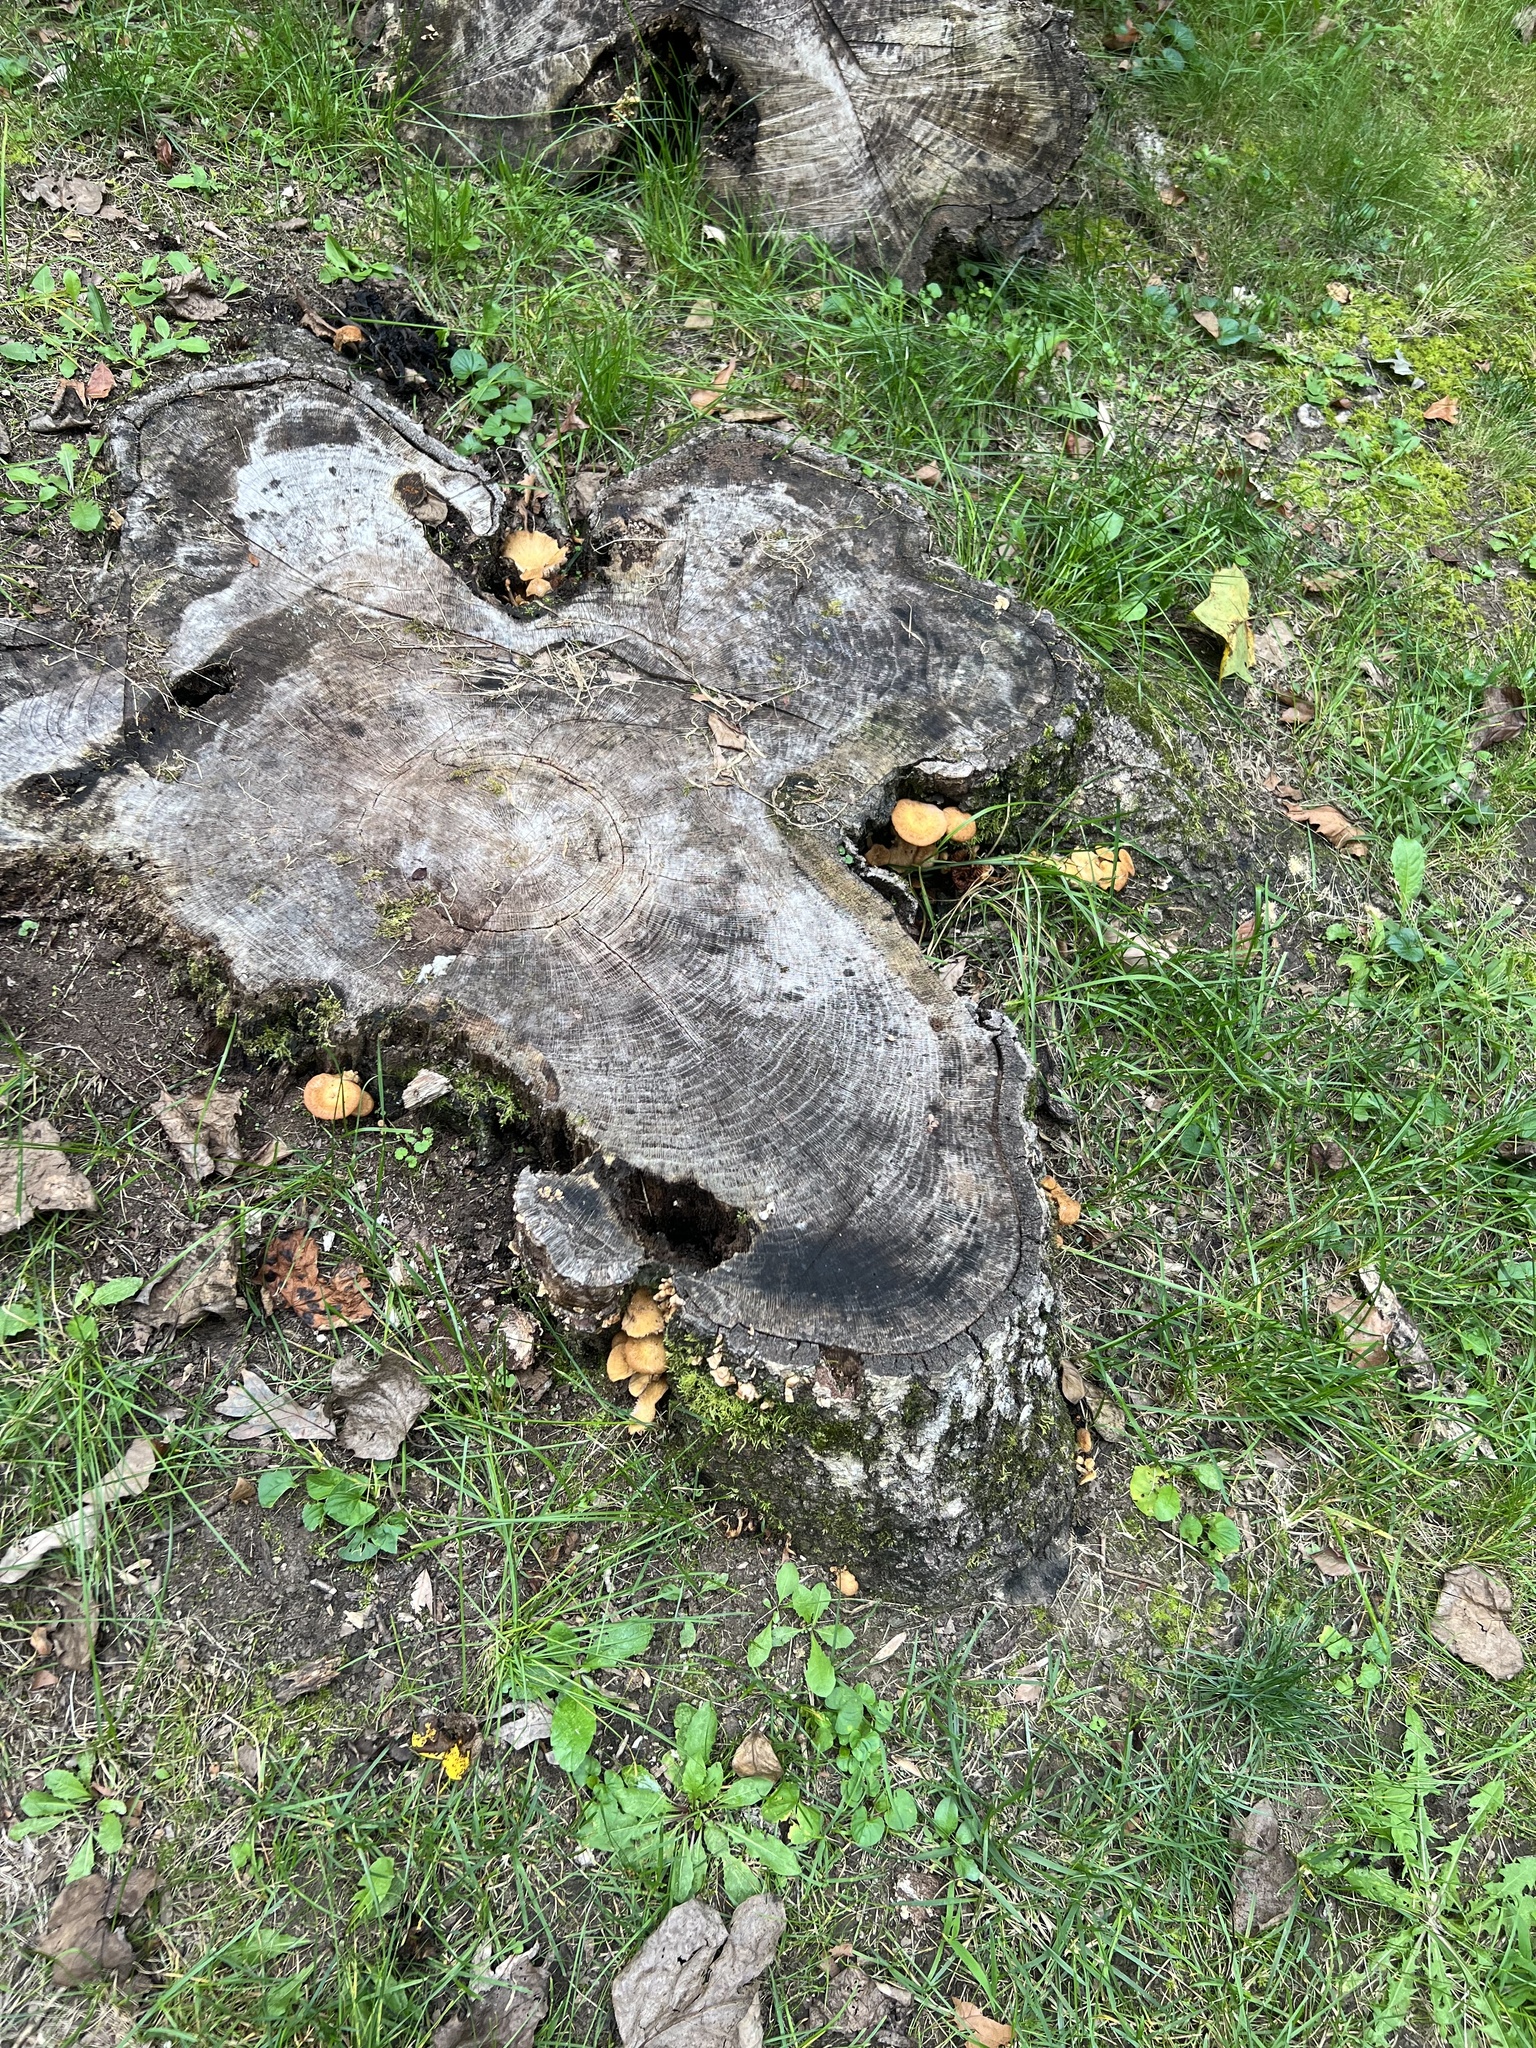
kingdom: Fungi
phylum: Basidiomycota
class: Agaricomycetes
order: Agaricales
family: Physalacriaceae
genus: Desarmillaria
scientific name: Desarmillaria caespitosa
